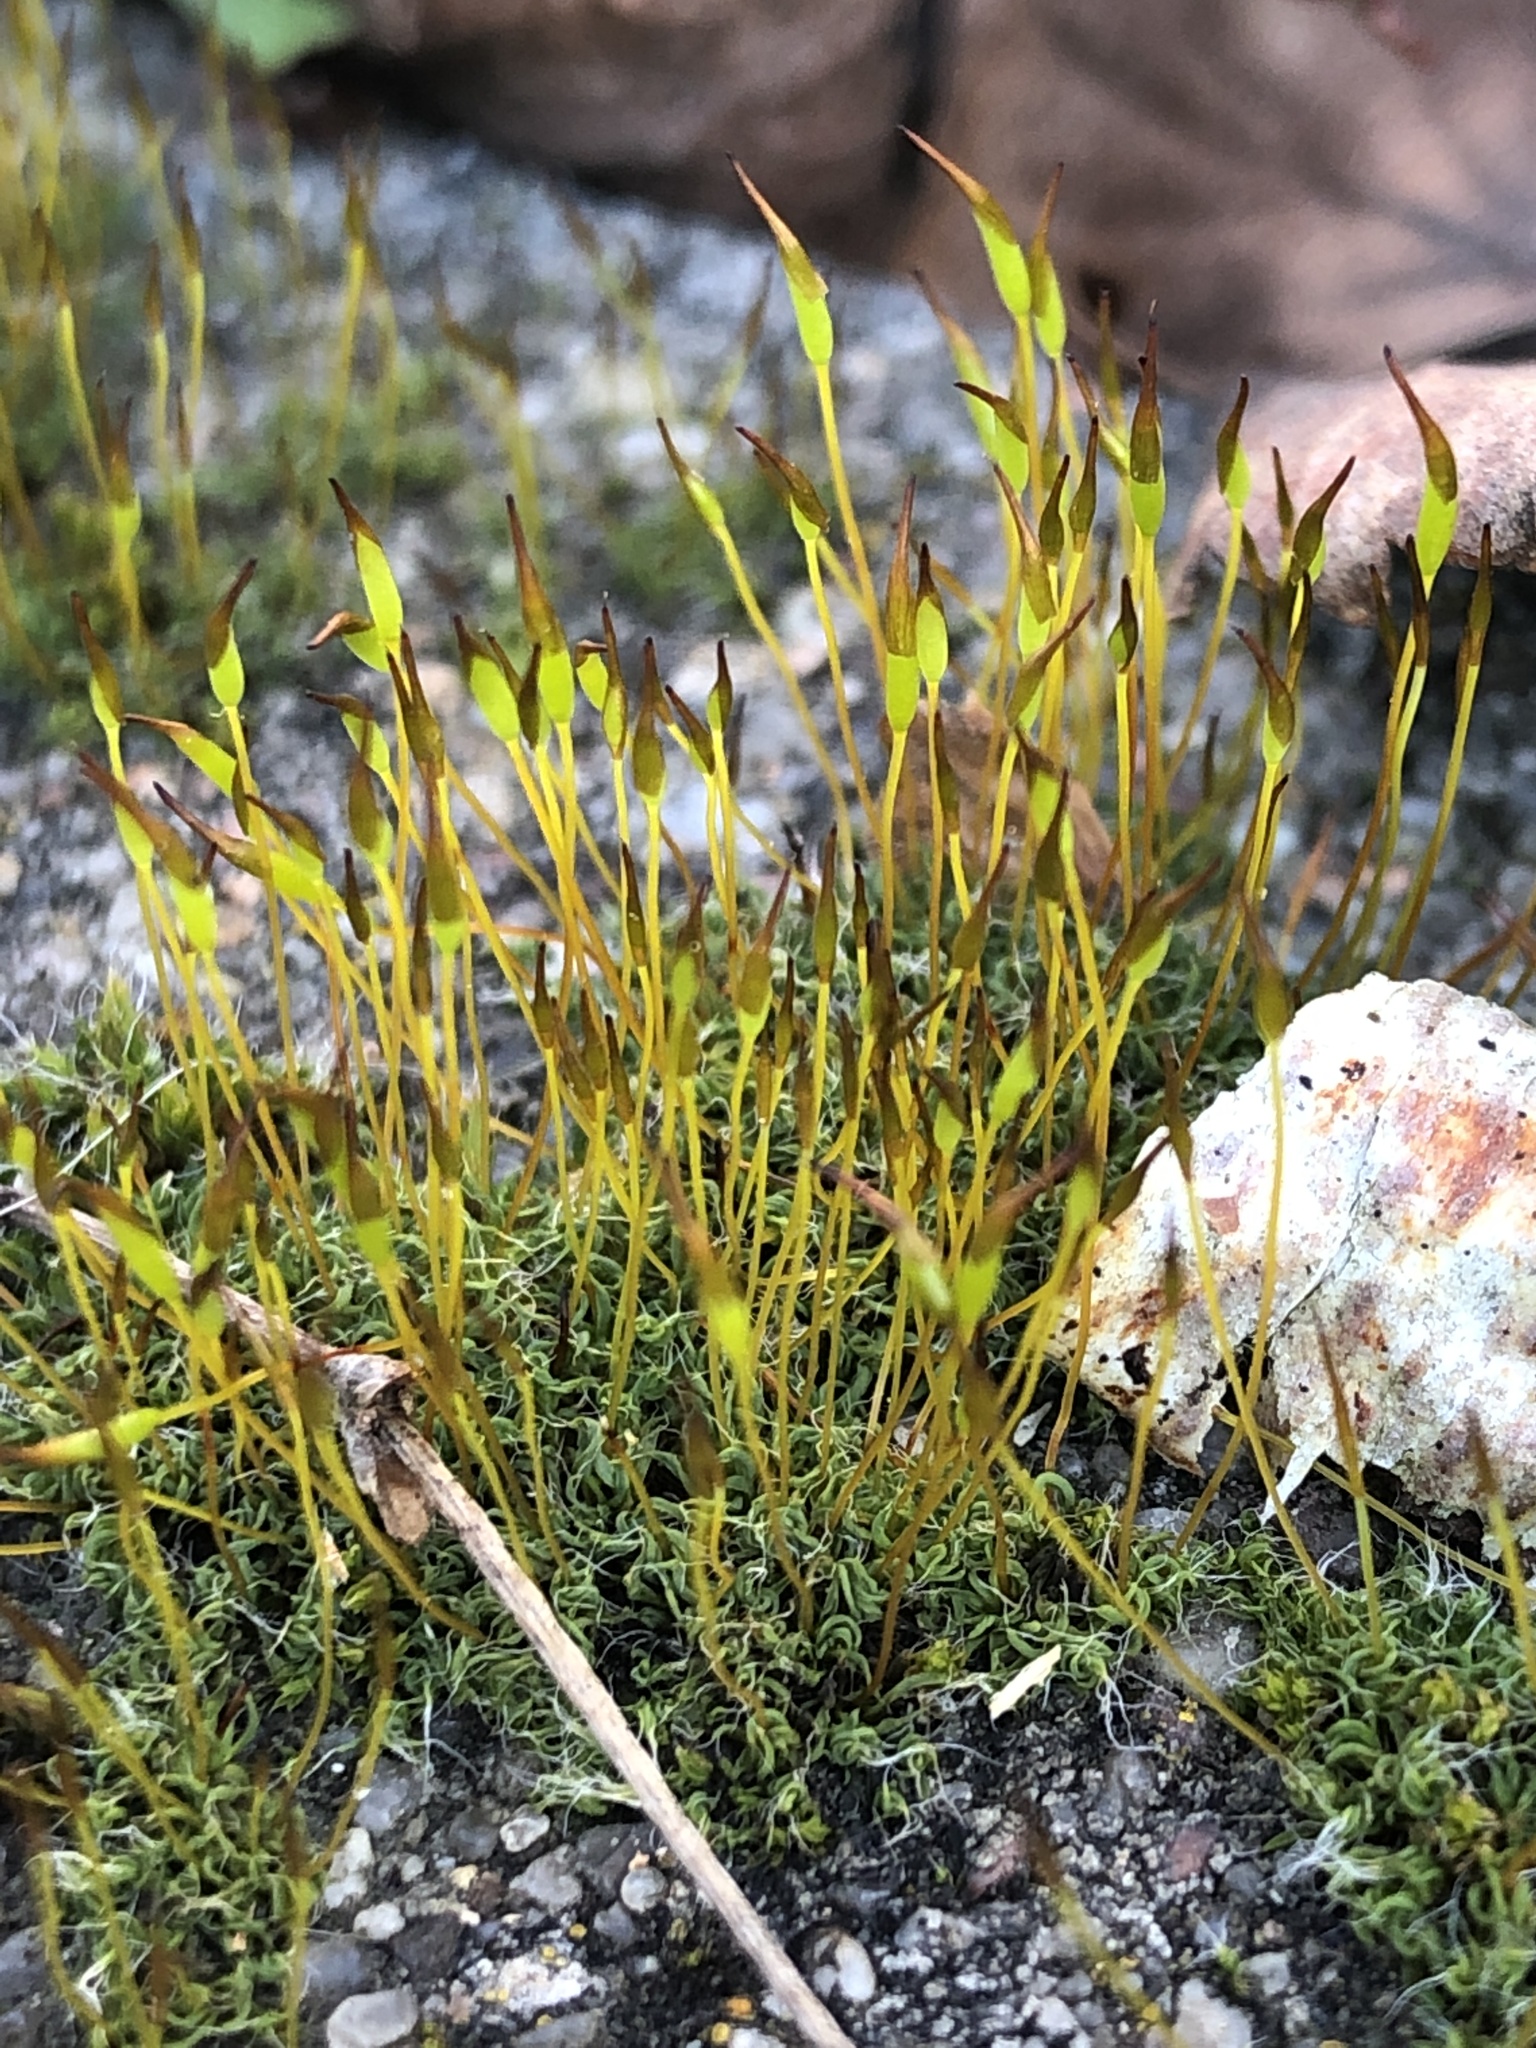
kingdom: Plantae
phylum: Bryophyta
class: Bryopsida
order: Pottiales
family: Pottiaceae
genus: Tortula
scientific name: Tortula muralis
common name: Wall screw-moss
